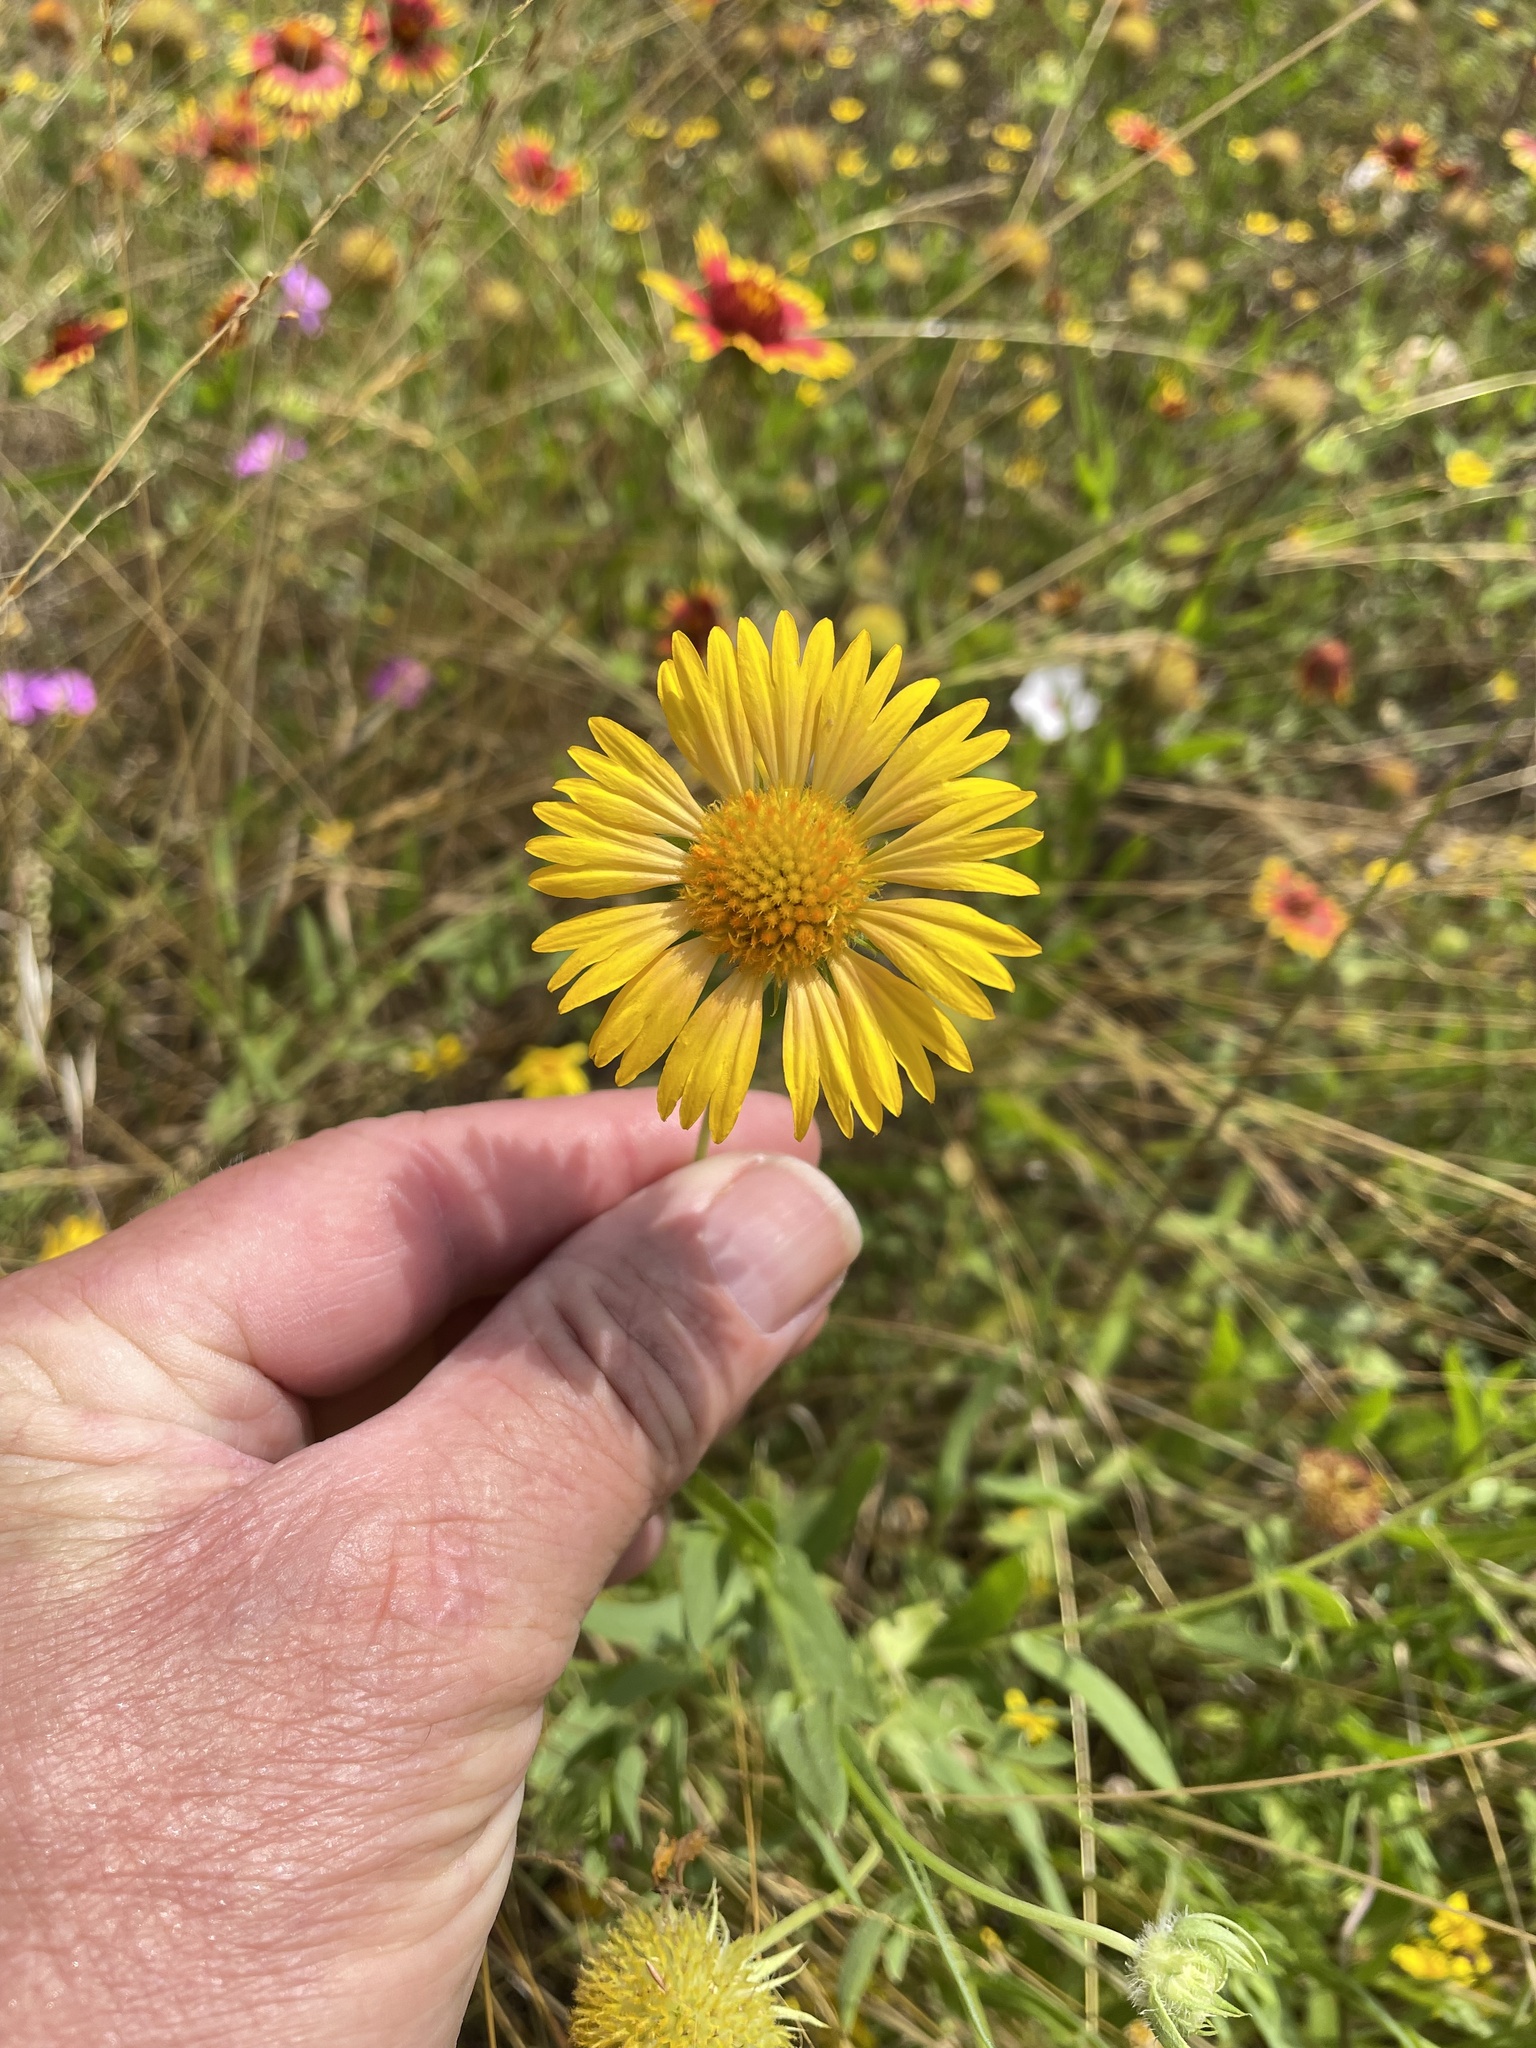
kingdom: Plantae
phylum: Tracheophyta
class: Magnoliopsida
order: Asterales
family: Asteraceae
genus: Gaillardia
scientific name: Gaillardia pulchella
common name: Firewheel
